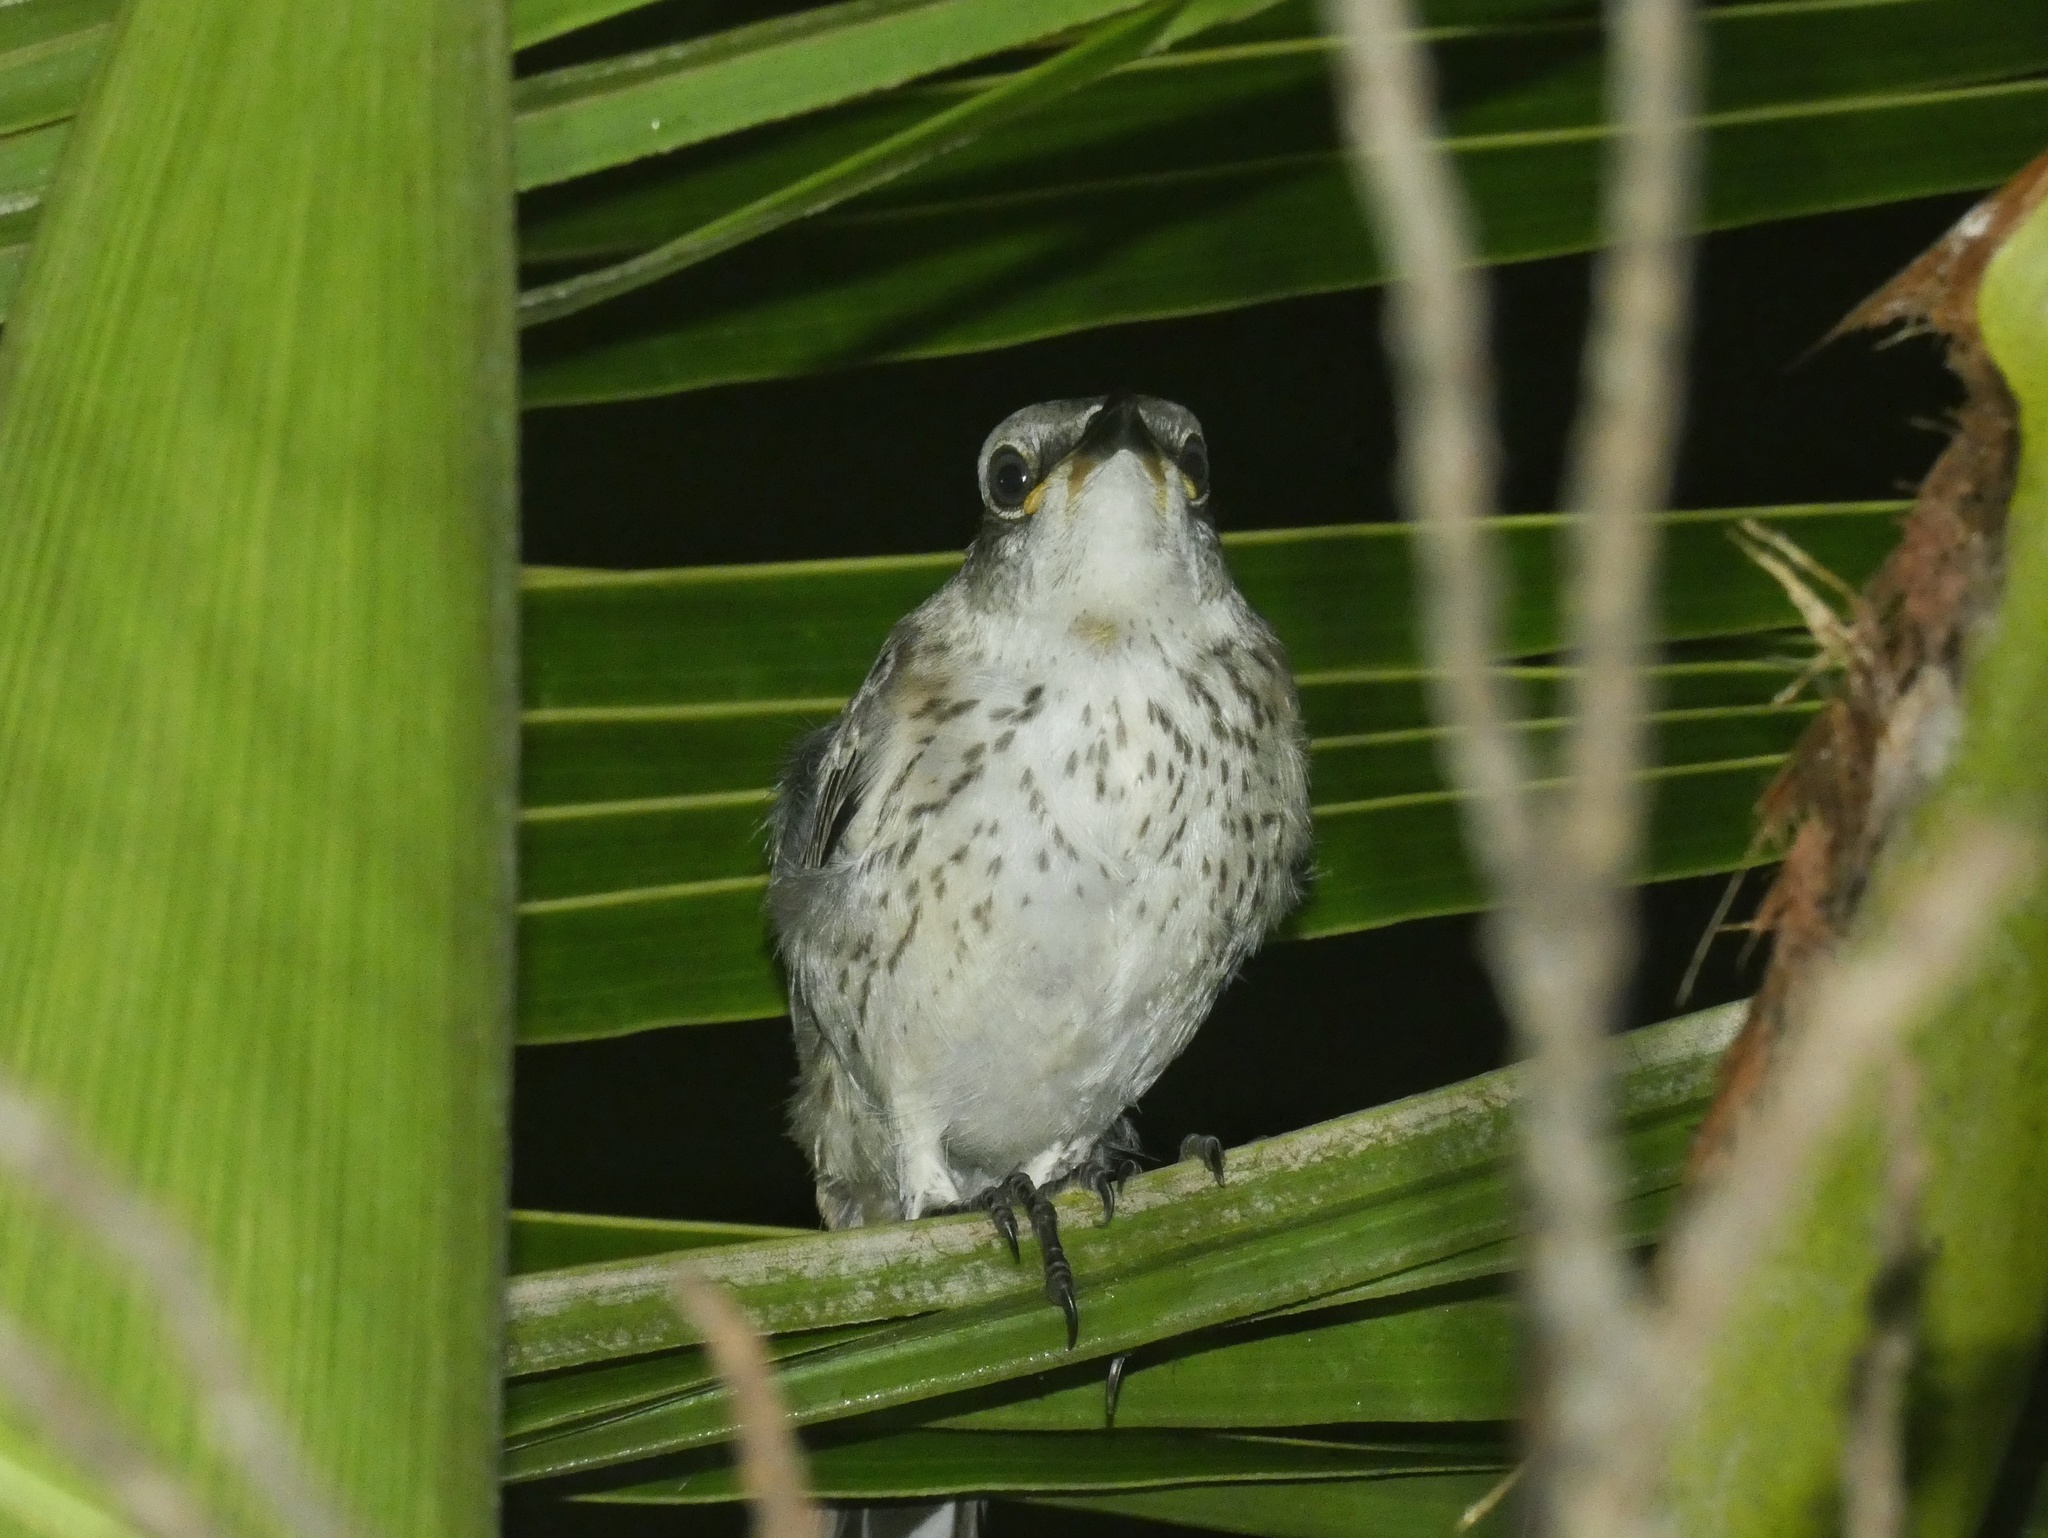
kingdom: Animalia
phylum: Chordata
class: Aves
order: Passeriformes
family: Mimidae
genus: Mimus
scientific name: Mimus gilvus
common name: Tropical mockingbird
